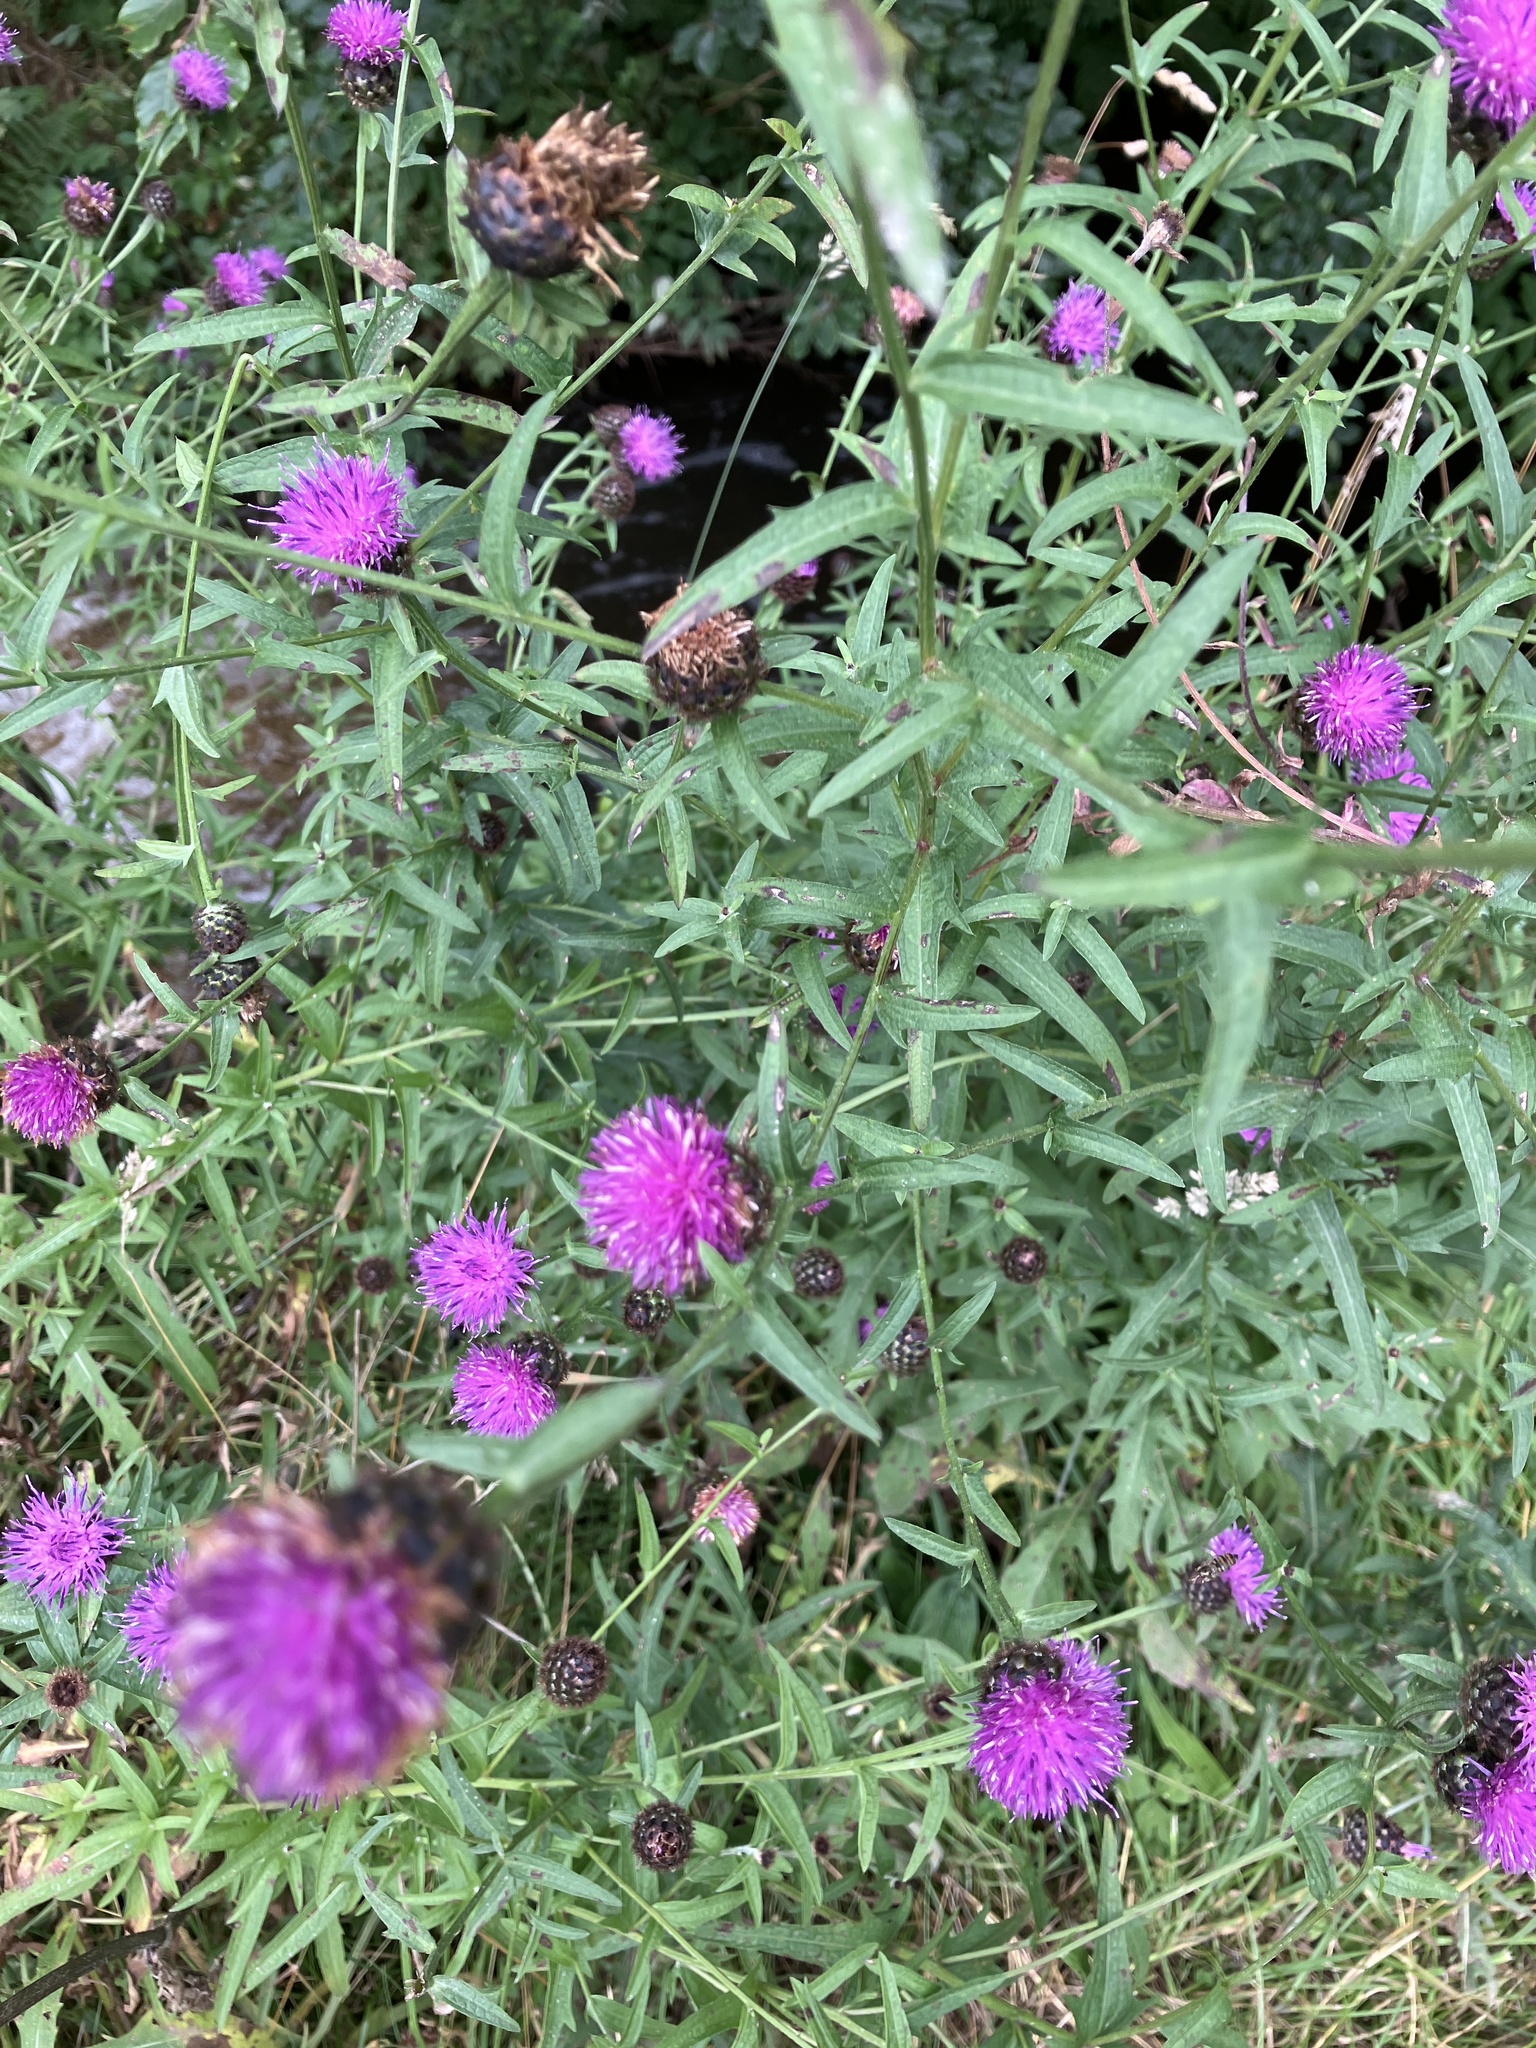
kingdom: Plantae
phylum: Tracheophyta
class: Magnoliopsida
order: Asterales
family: Asteraceae
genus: Centaurea
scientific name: Centaurea nigra
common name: Lesser knapweed
